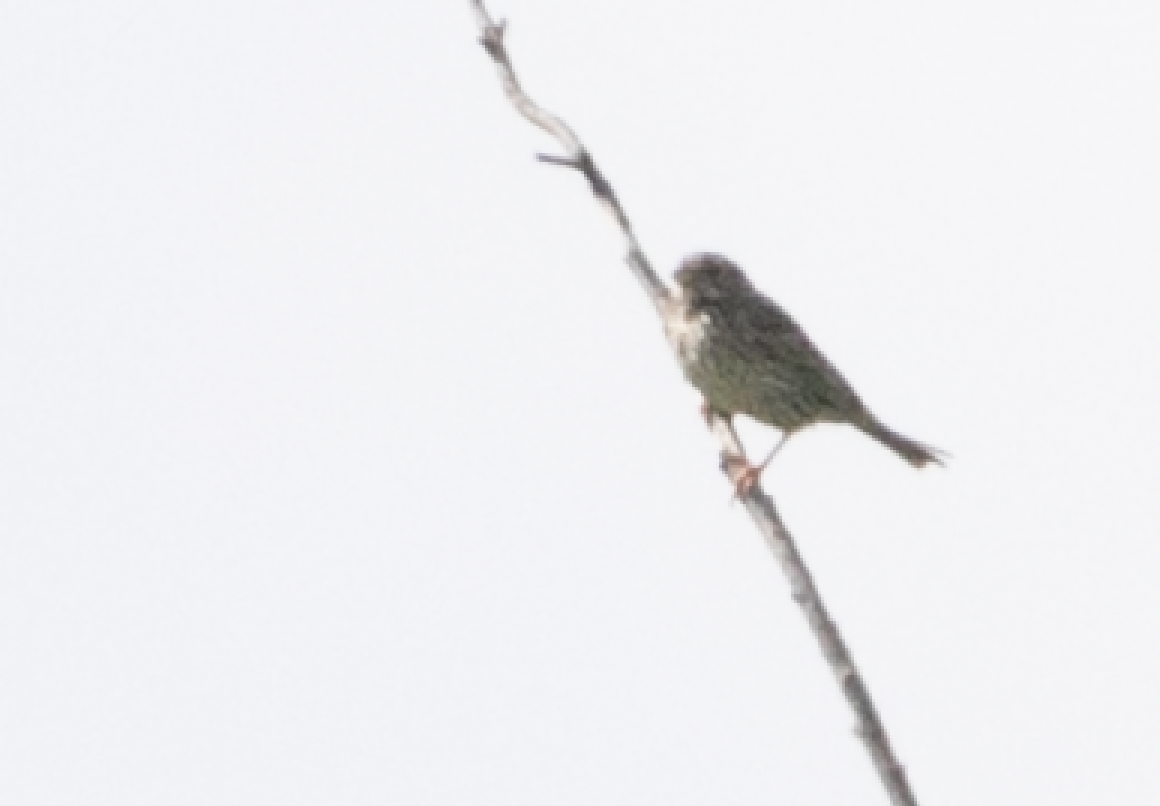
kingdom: Animalia
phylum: Chordata
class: Aves
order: Passeriformes
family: Emberizidae
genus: Emberiza
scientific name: Emberiza calandra
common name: Corn bunting
